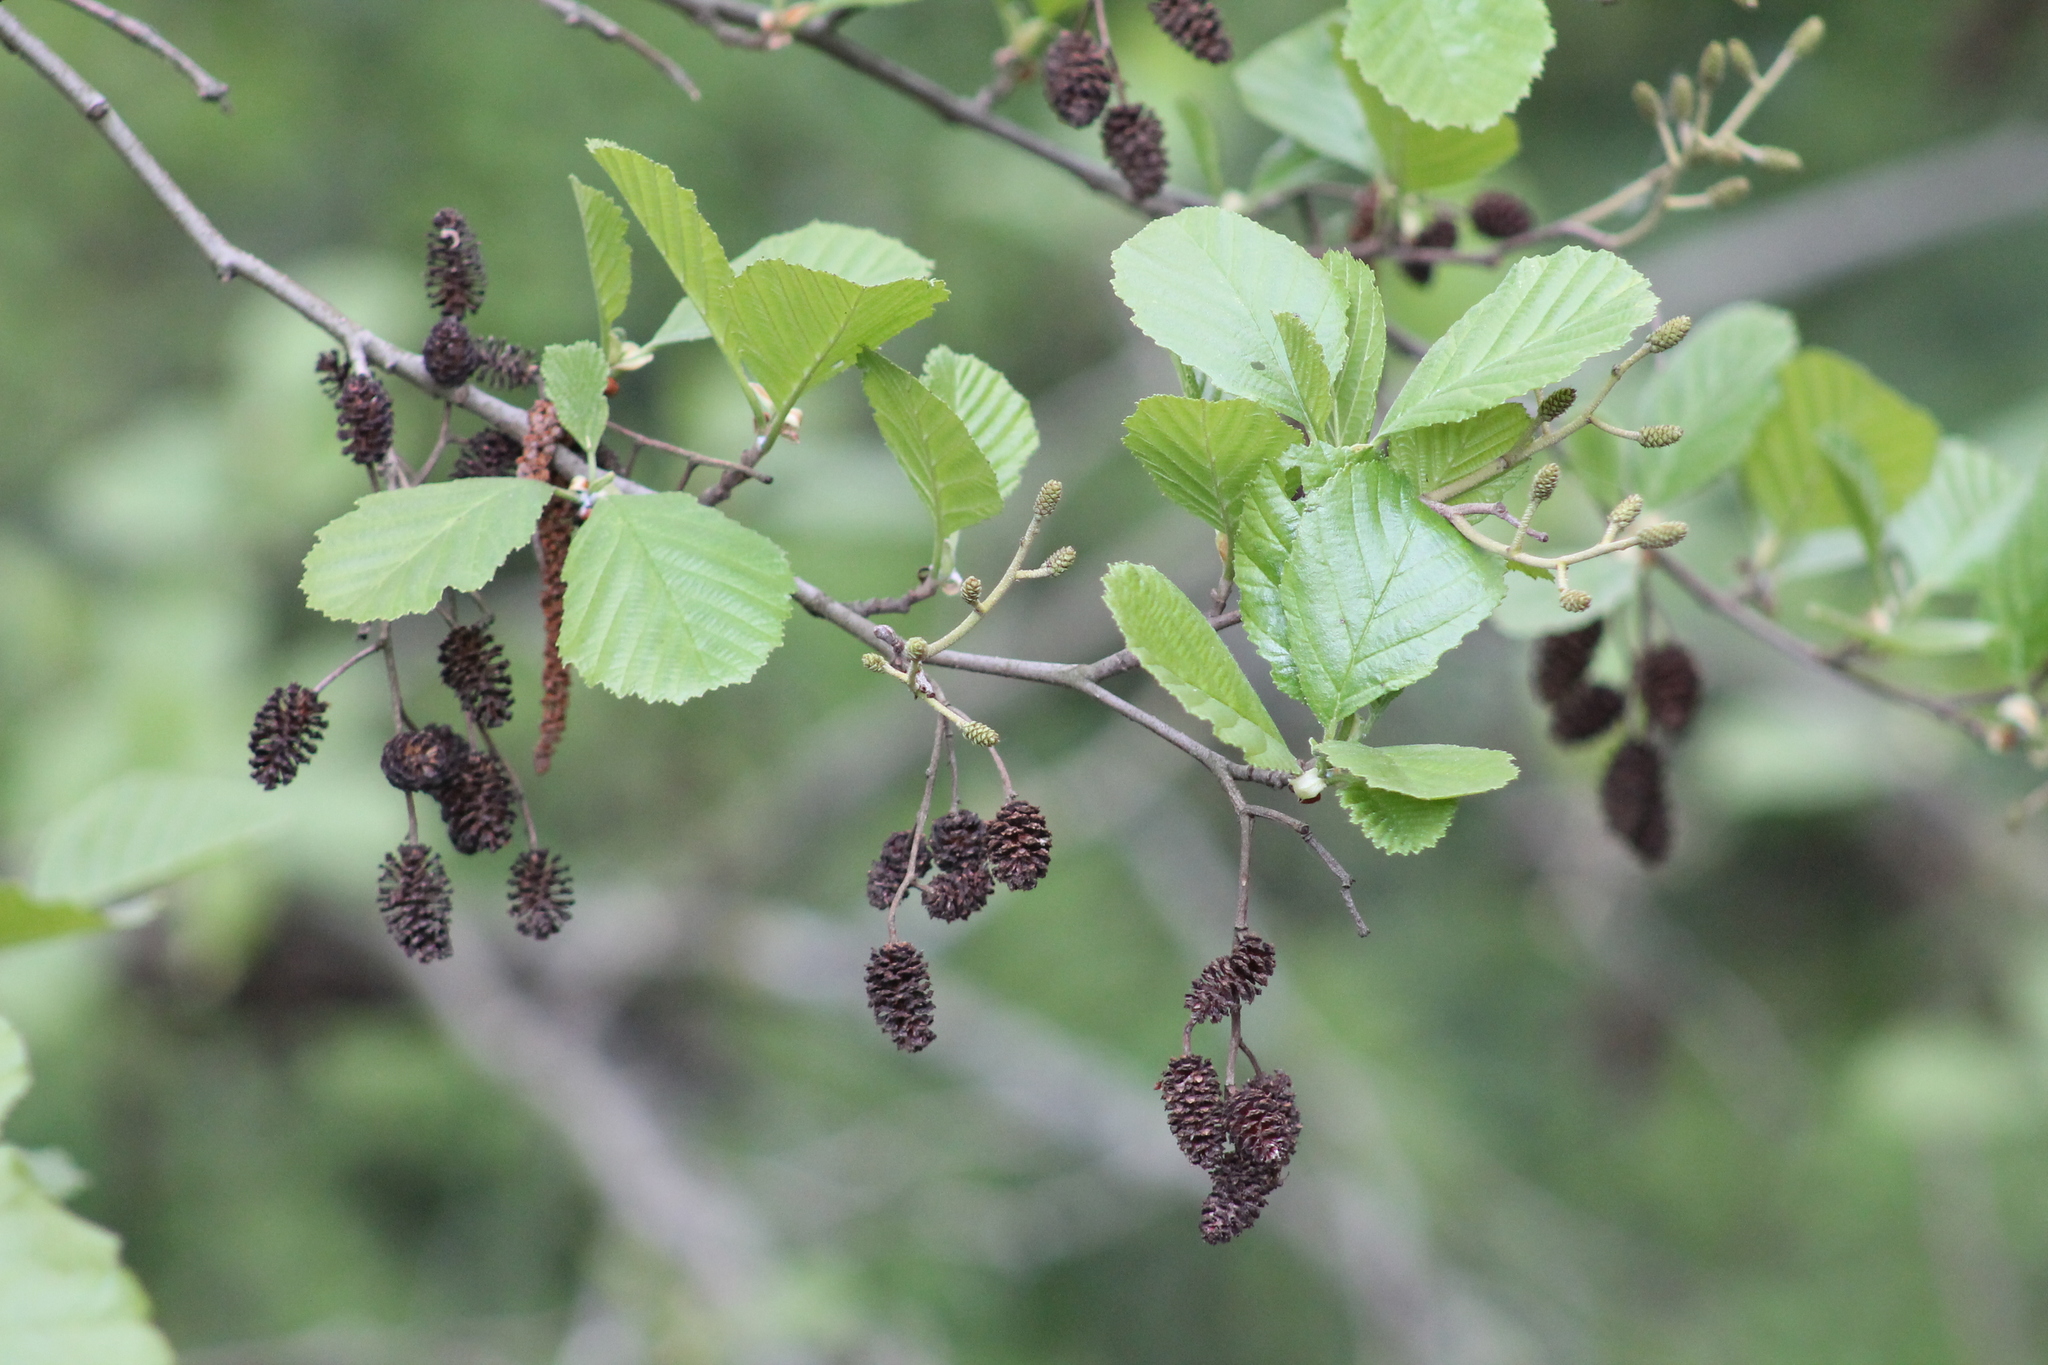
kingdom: Plantae
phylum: Tracheophyta
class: Magnoliopsida
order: Fagales
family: Betulaceae
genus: Alnus
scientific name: Alnus glutinosa
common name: Black alder
